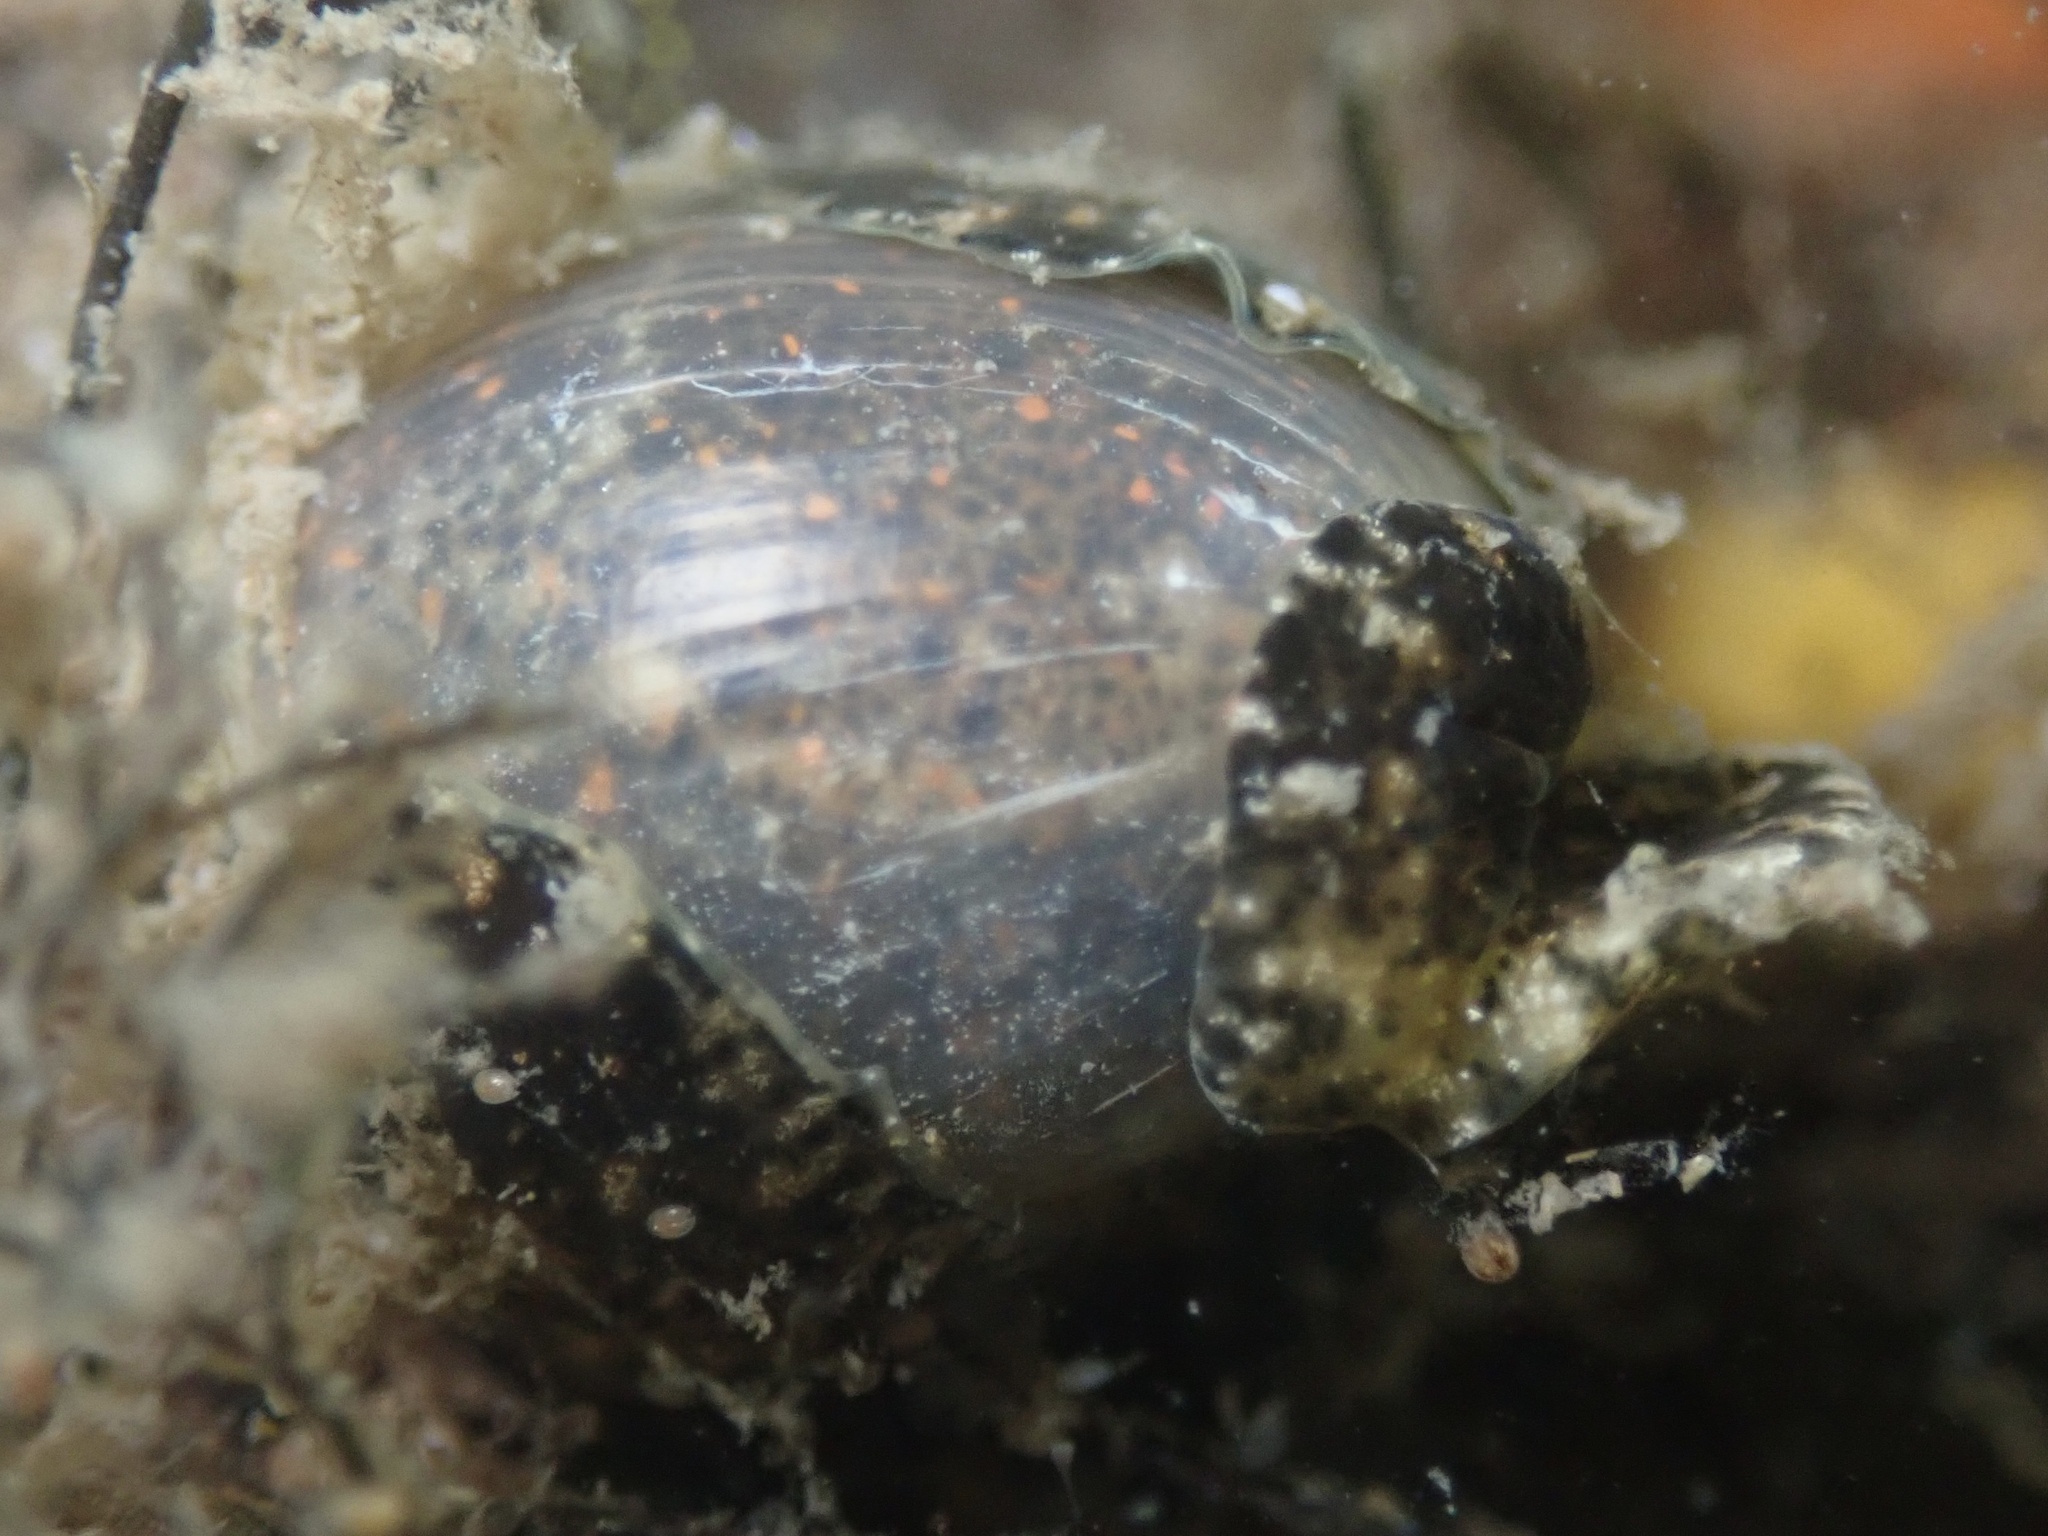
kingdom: Animalia
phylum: Mollusca
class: Gastropoda
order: Cephalaspidea
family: Haminoeidae
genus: Haloa
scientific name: Haloa japonica
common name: Japanese bubble snail
